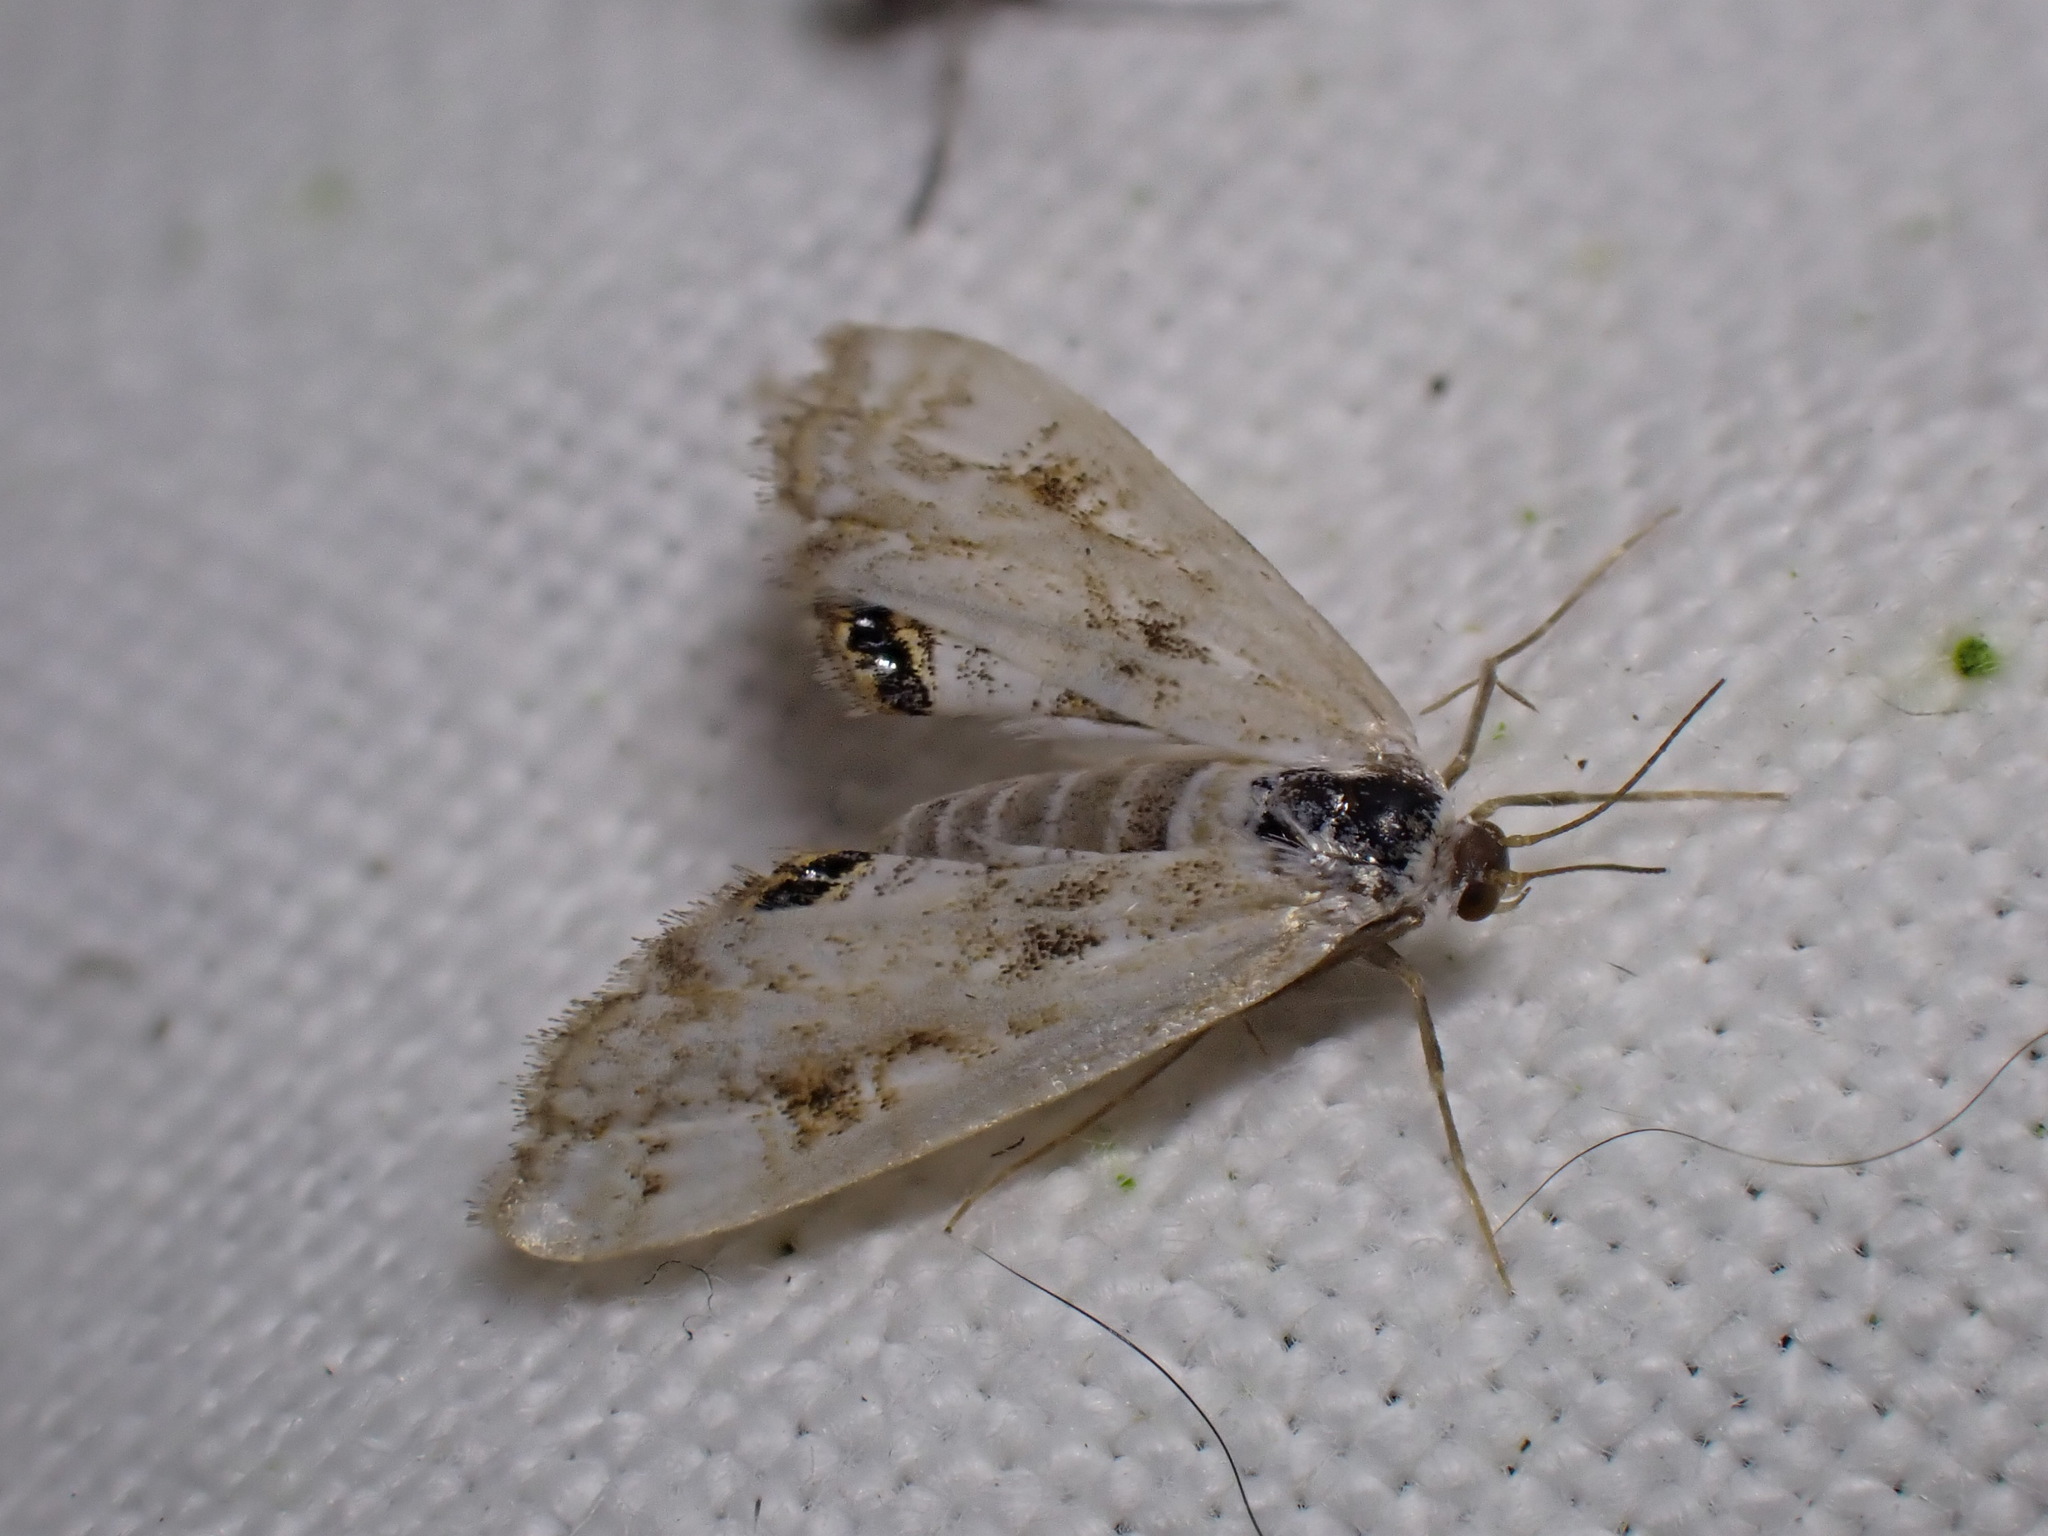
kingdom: Animalia
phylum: Arthropoda
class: Insecta
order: Lepidoptera
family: Crambidae
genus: Cataclysta
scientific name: Cataclysta lemnata
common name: Small china-mark
